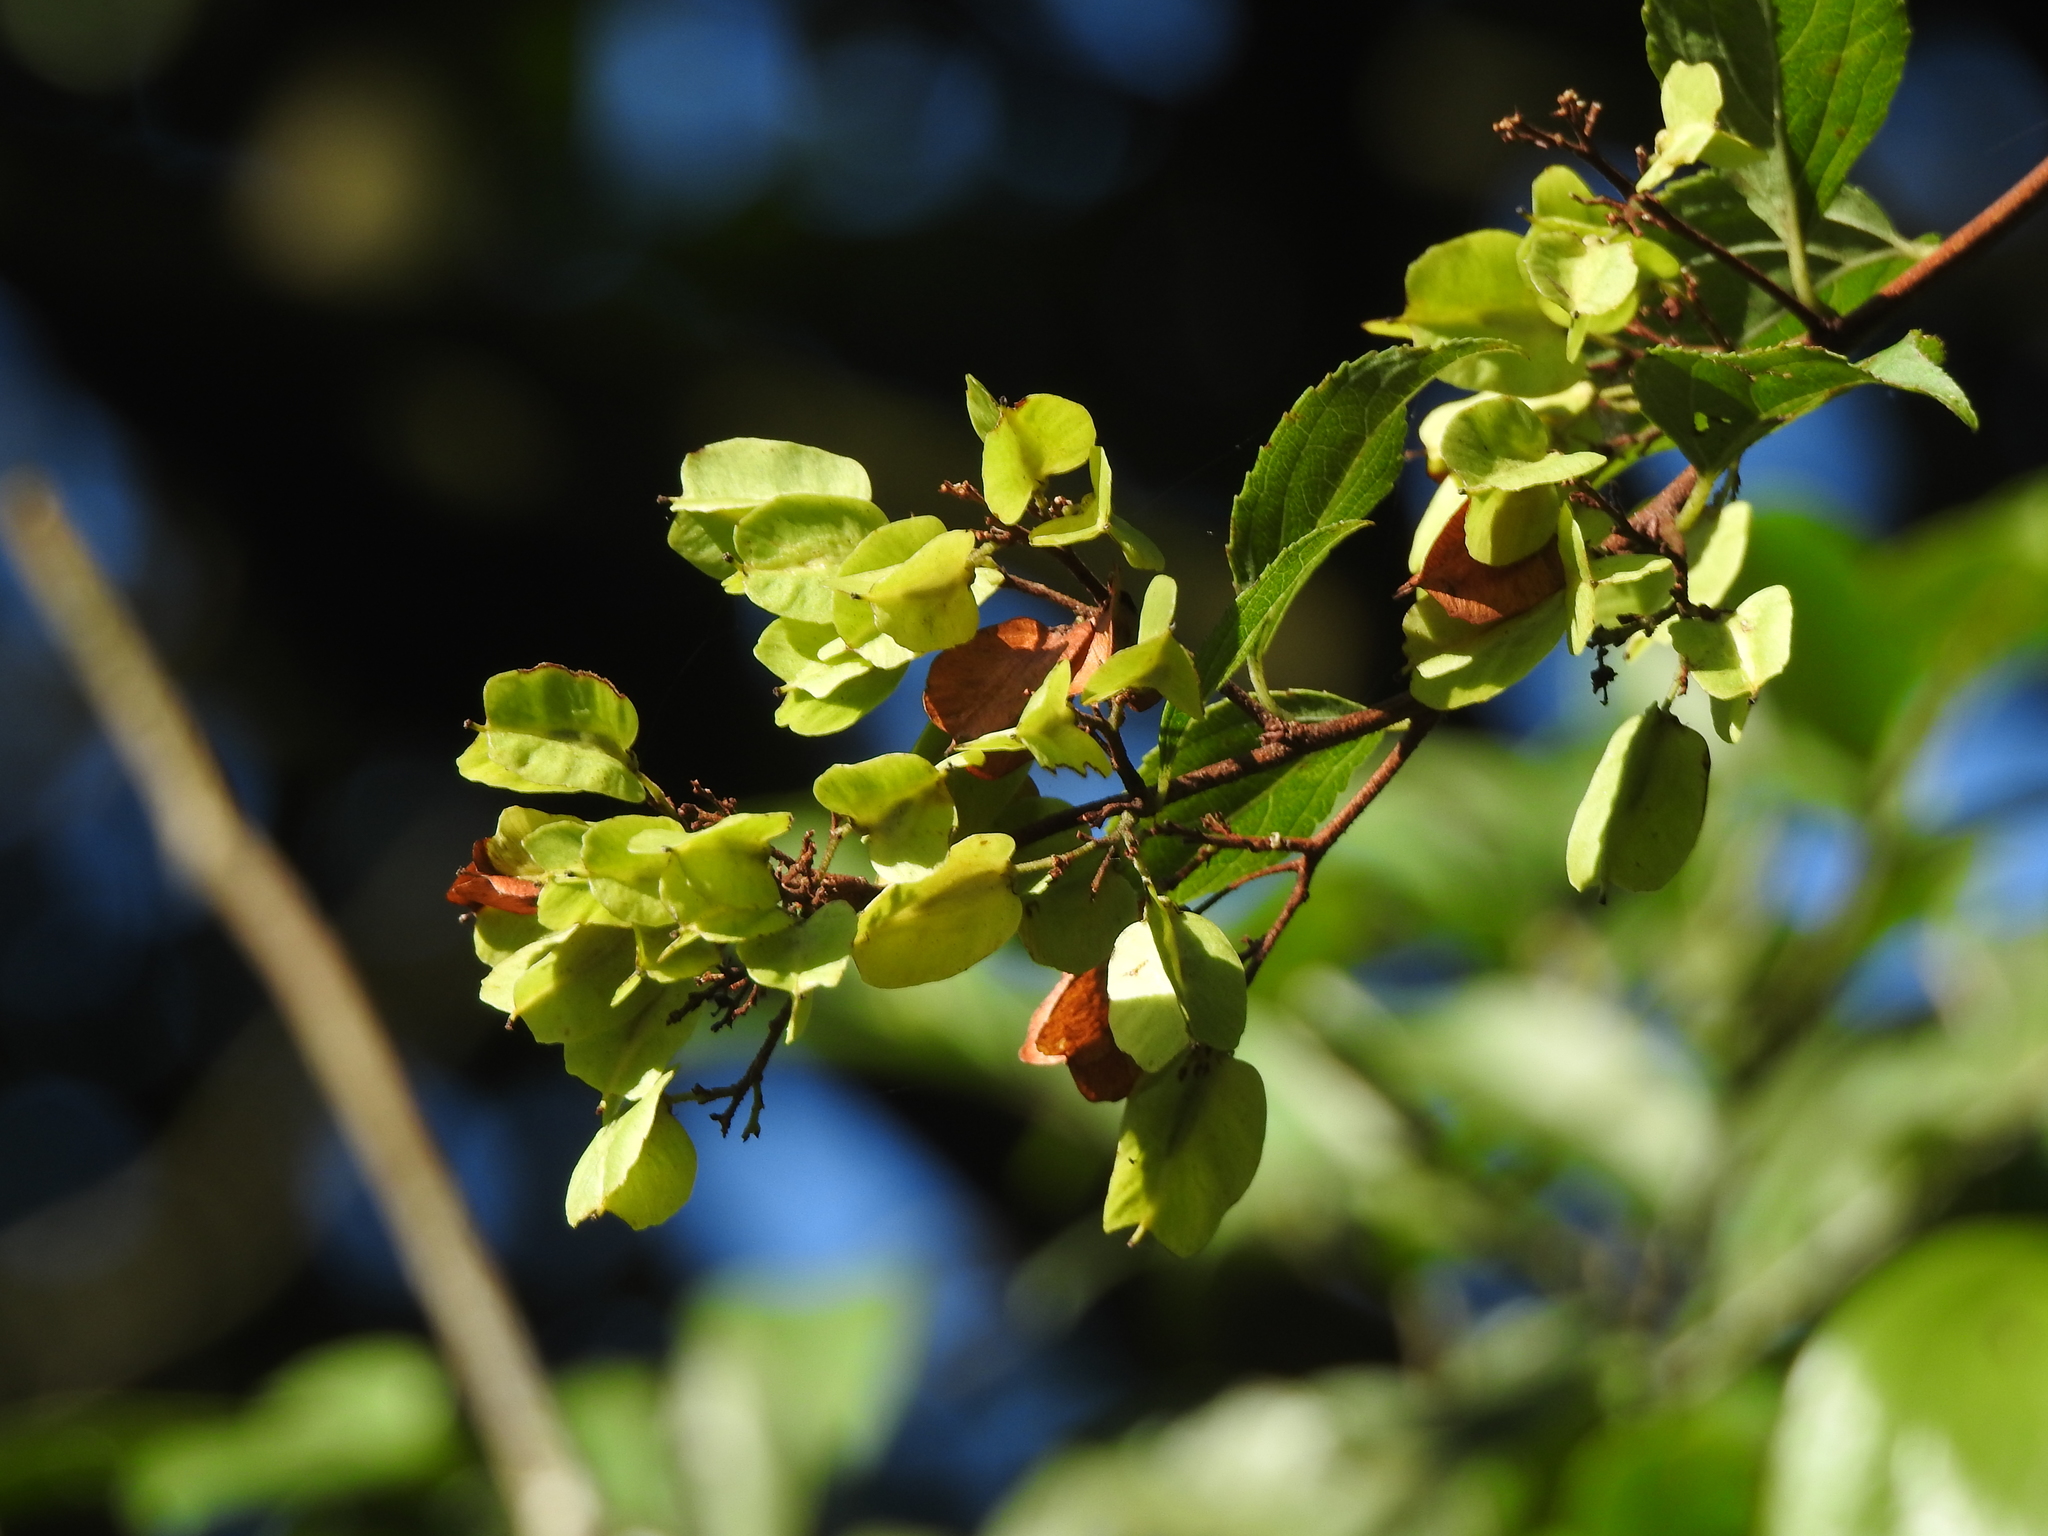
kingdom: Plantae
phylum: Tracheophyta
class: Magnoliopsida
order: Celastrales
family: Celastraceae
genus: Tripterygium
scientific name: Tripterygium wilfordii
